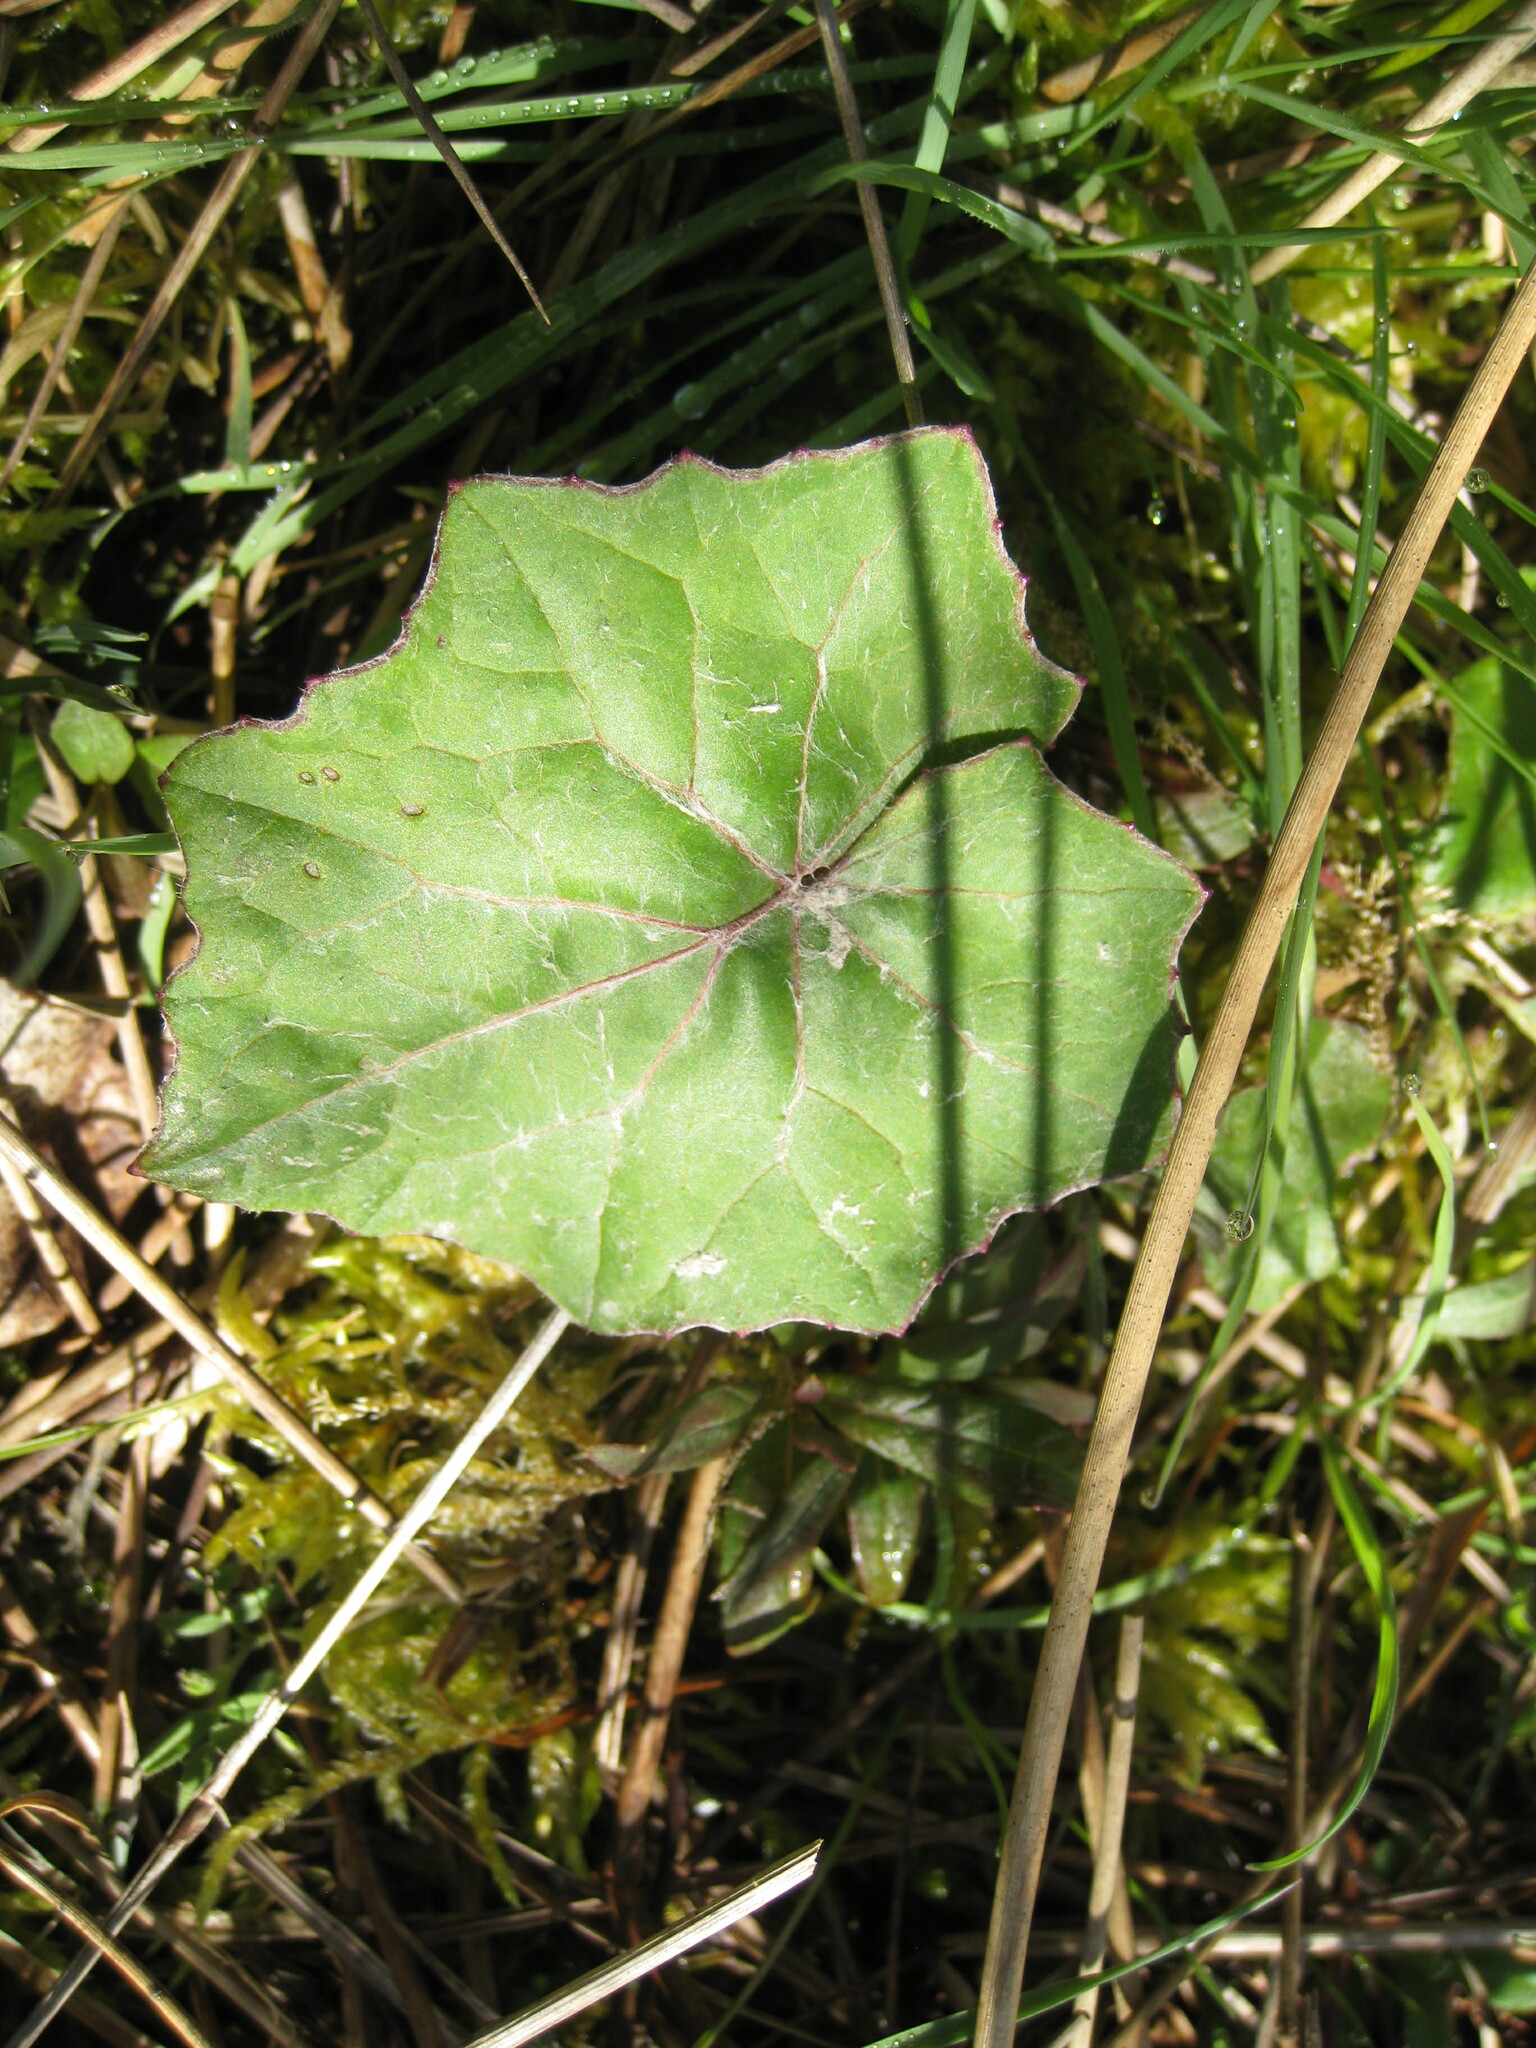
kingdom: Plantae
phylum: Tracheophyta
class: Magnoliopsida
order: Asterales
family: Asteraceae
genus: Tussilago
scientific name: Tussilago farfara
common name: Coltsfoot
